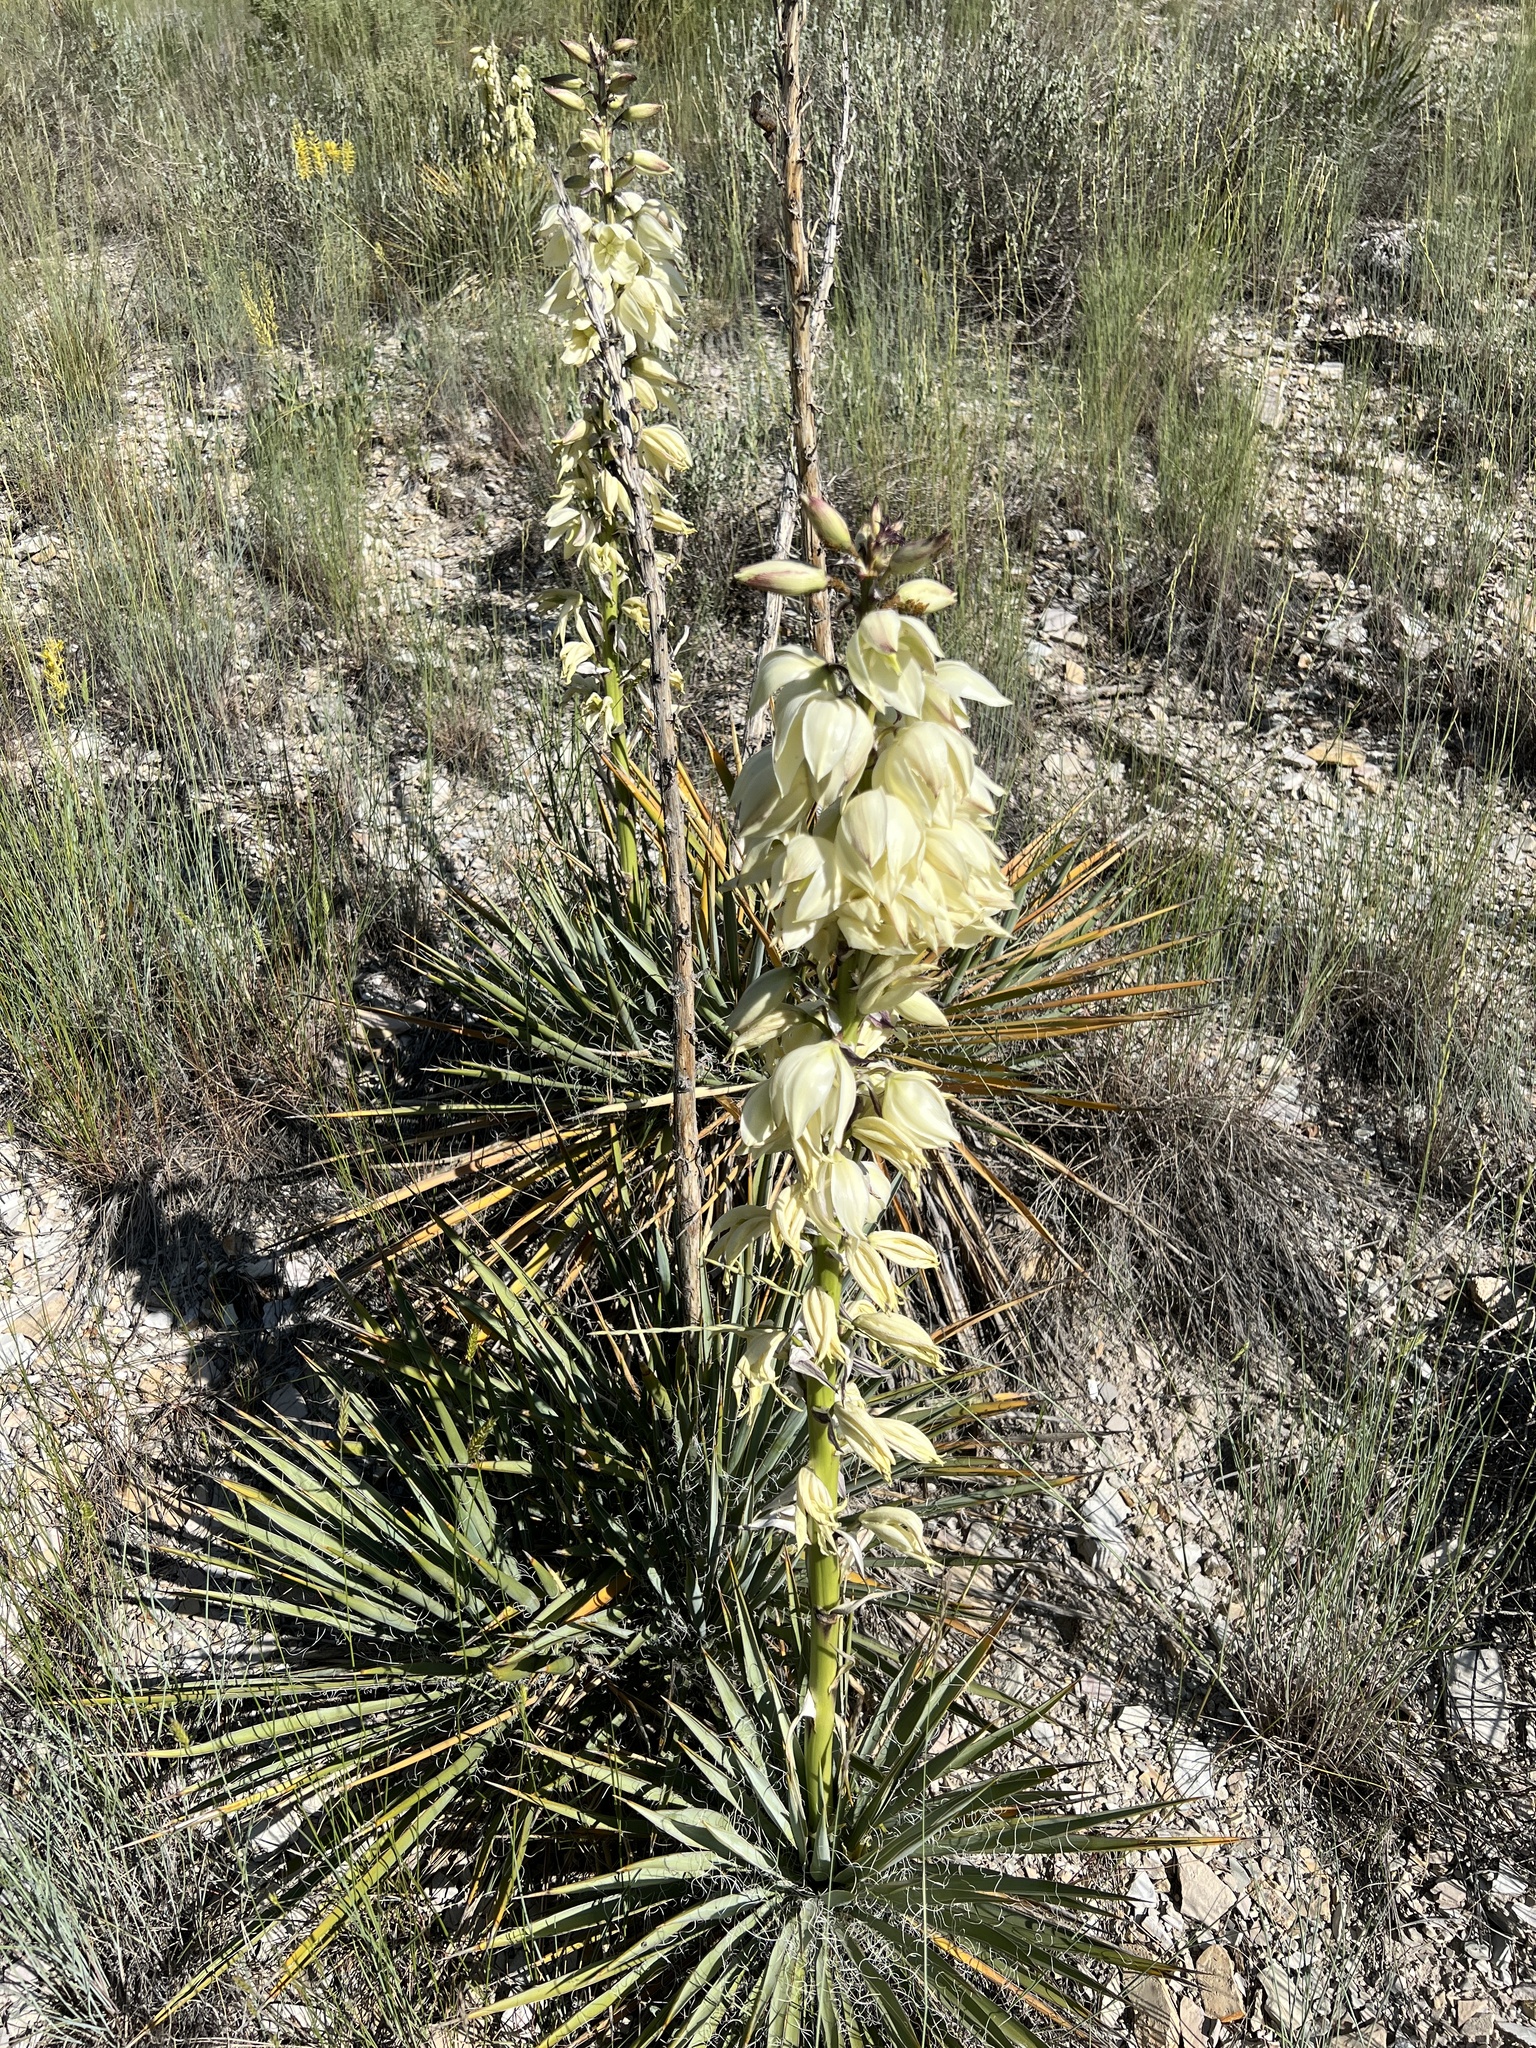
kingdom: Plantae
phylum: Tracheophyta
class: Liliopsida
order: Asparagales
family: Asparagaceae
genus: Yucca
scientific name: Yucca harrimaniae
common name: Harriman's yucca
